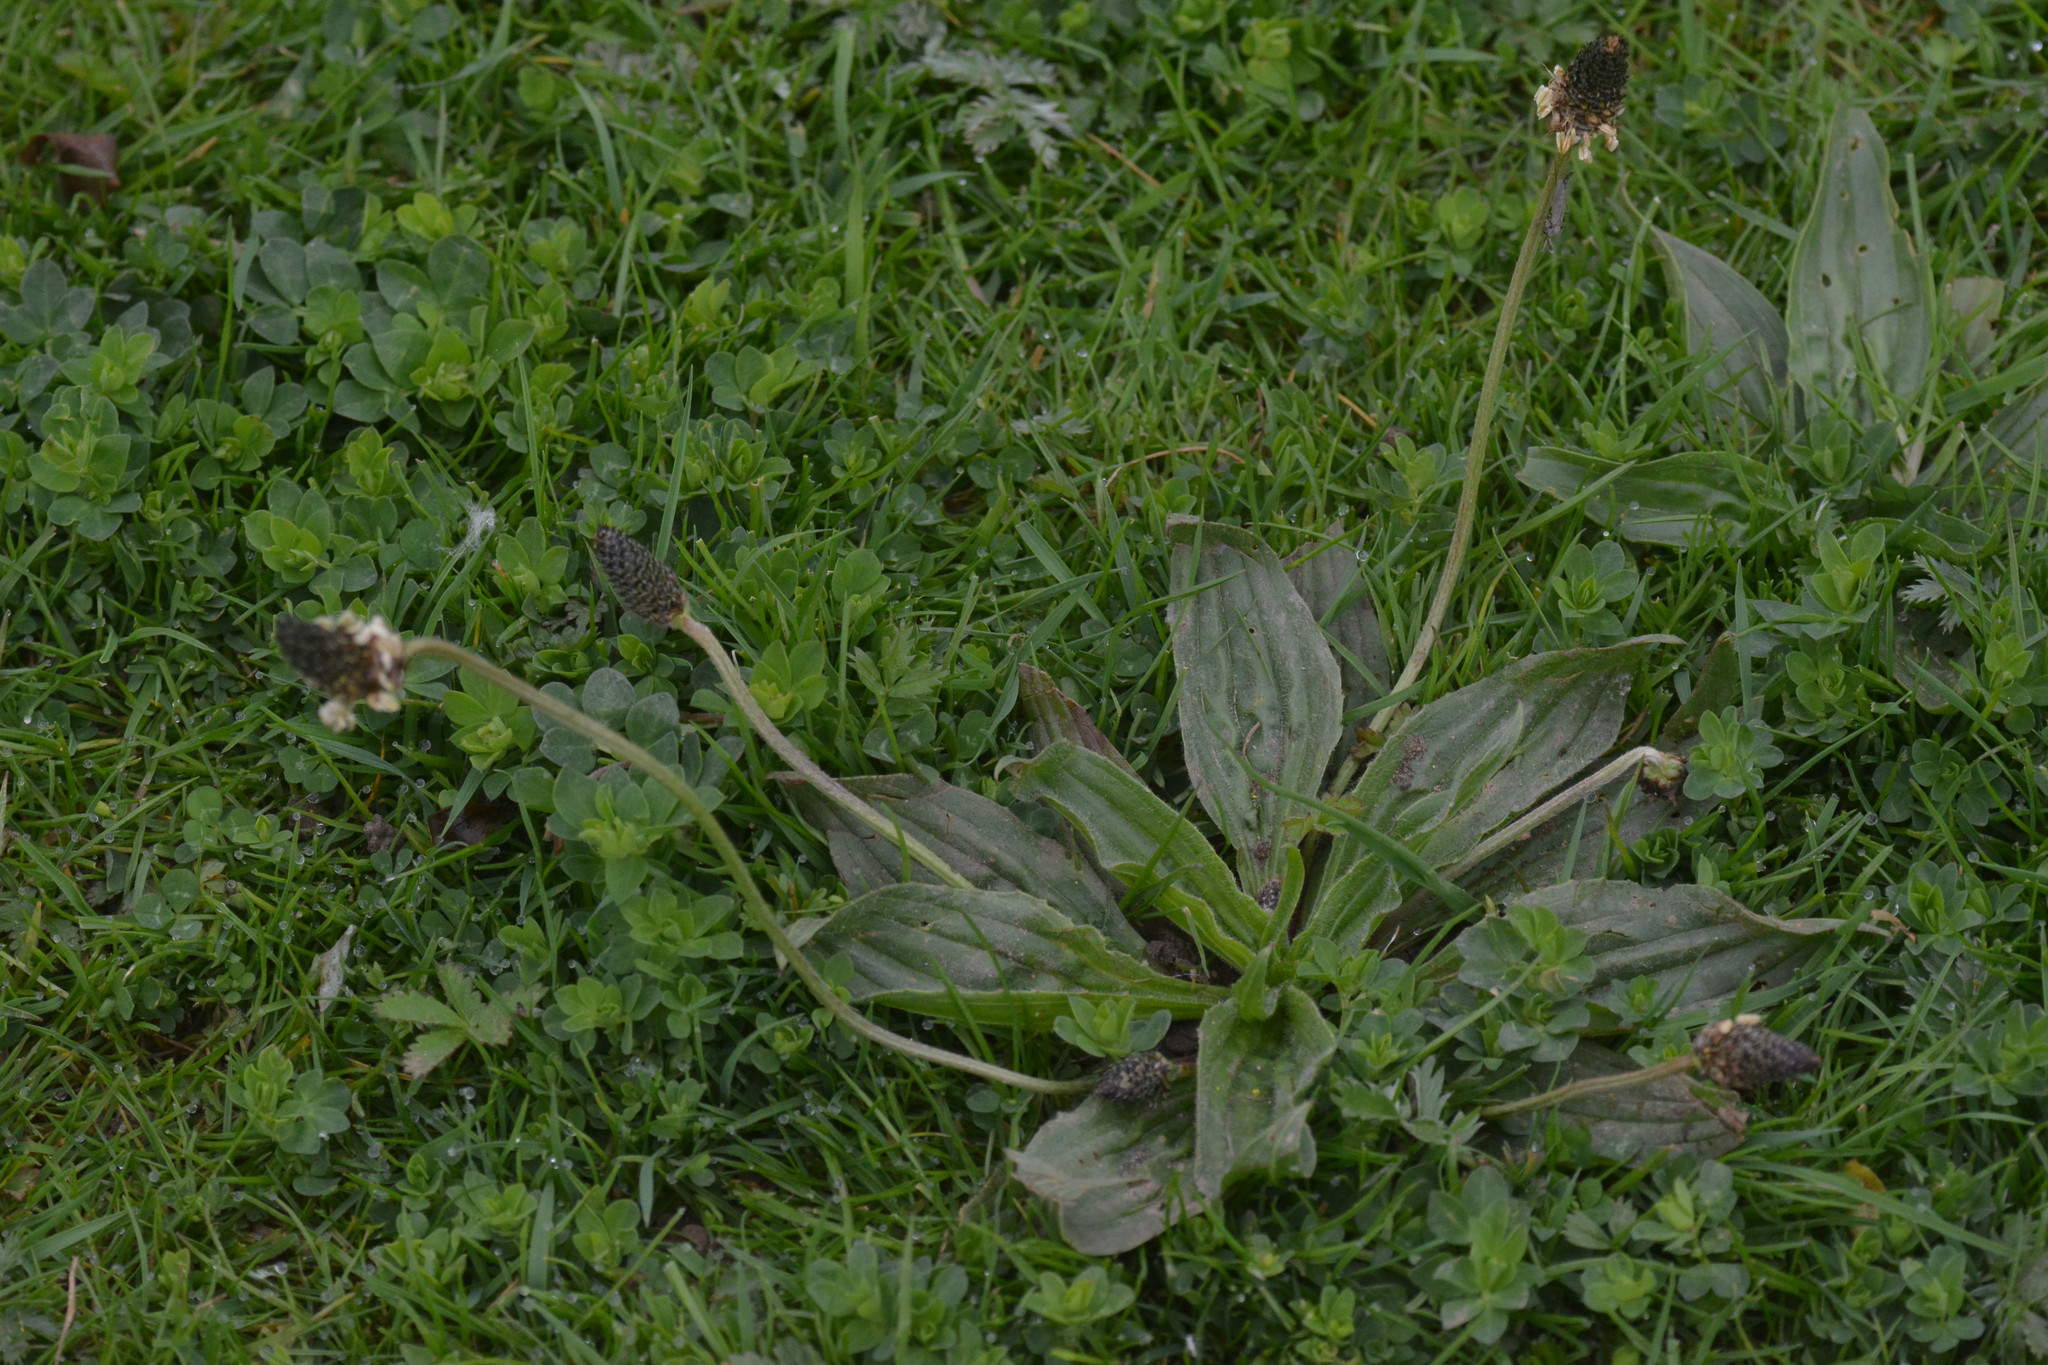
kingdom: Plantae
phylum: Tracheophyta
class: Magnoliopsida
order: Lamiales
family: Plantaginaceae
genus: Plantago
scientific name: Plantago lanceolata
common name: Ribwort plantain
